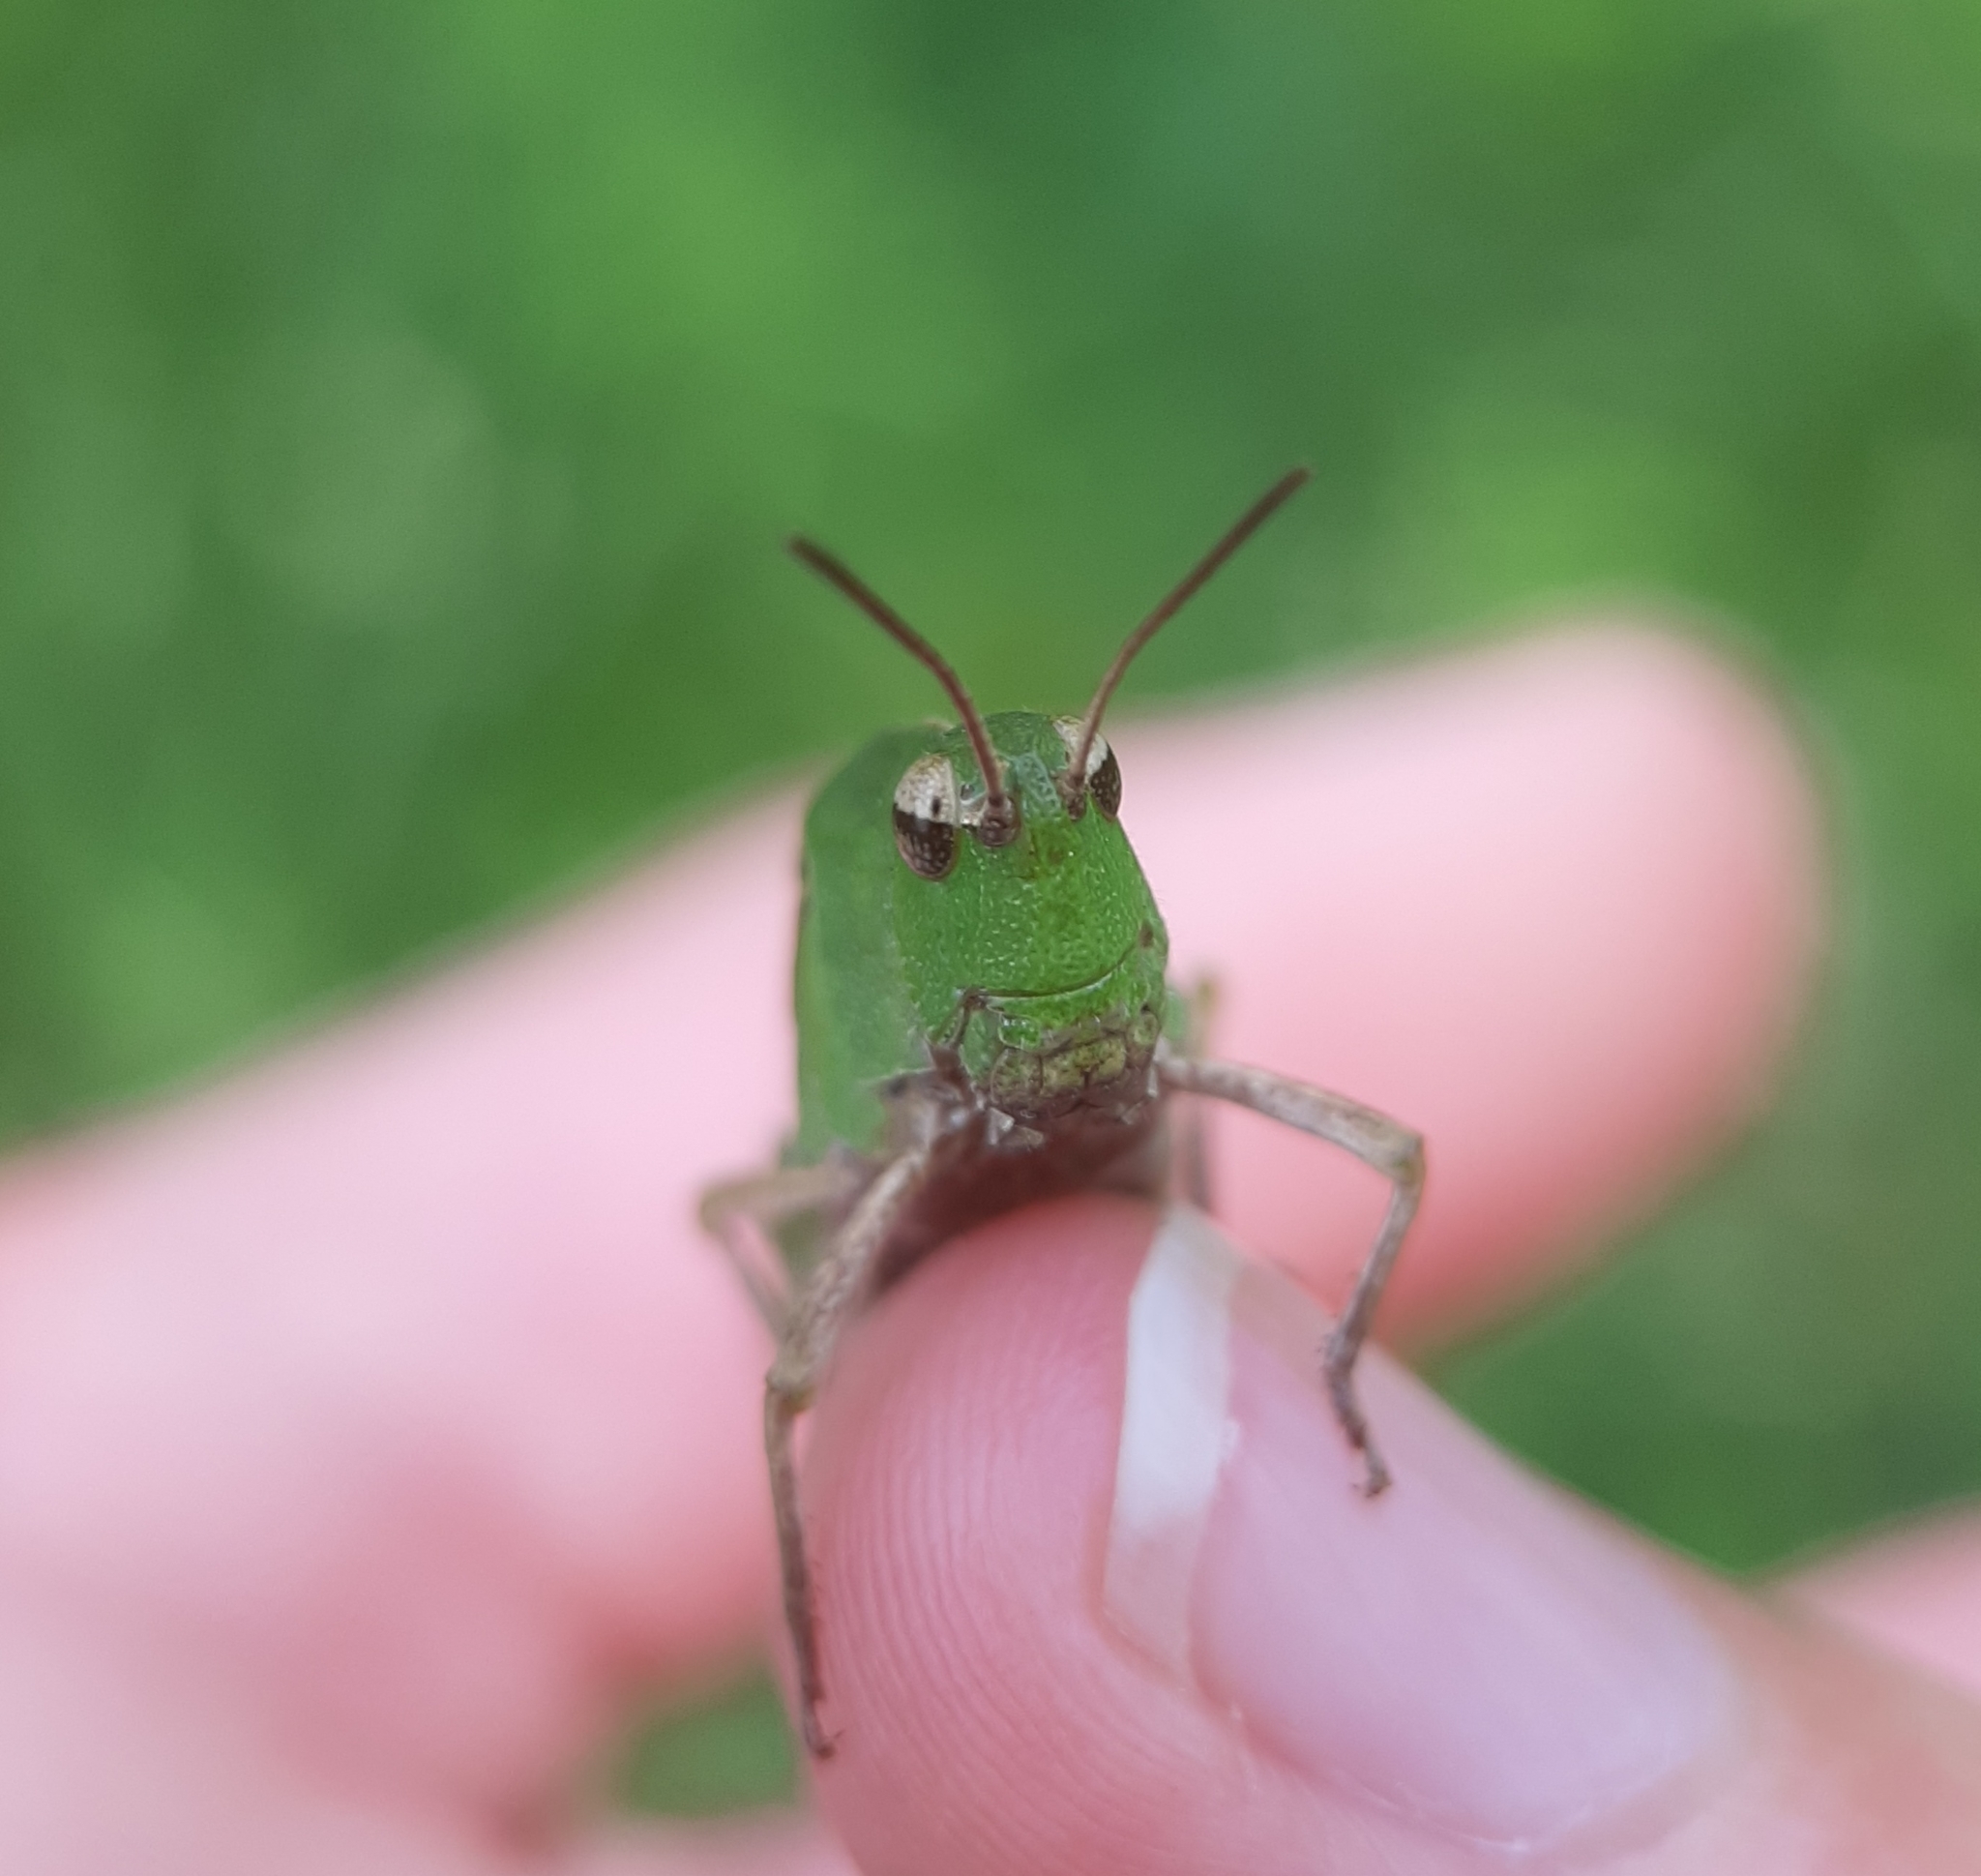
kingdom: Animalia
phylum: Arthropoda
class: Insecta
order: Orthoptera
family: Acrididae
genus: Chortophaga
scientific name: Chortophaga viridifasciata
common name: Green-striped grasshopper
